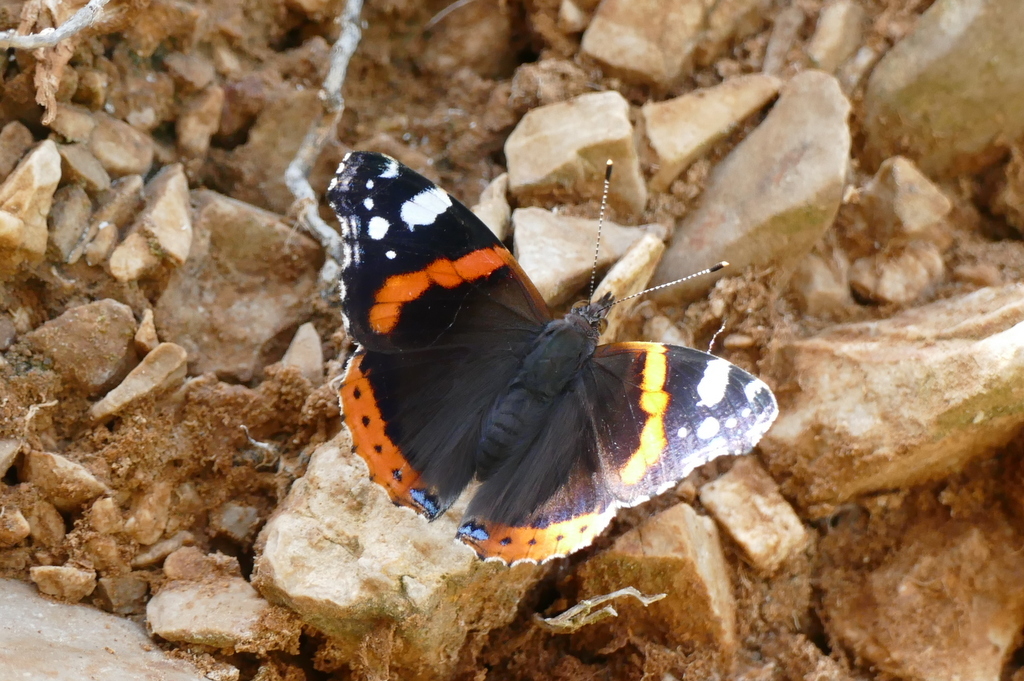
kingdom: Animalia
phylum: Arthropoda
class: Insecta
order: Lepidoptera
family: Nymphalidae
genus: Vanessa
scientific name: Vanessa atalanta
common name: Red admiral
